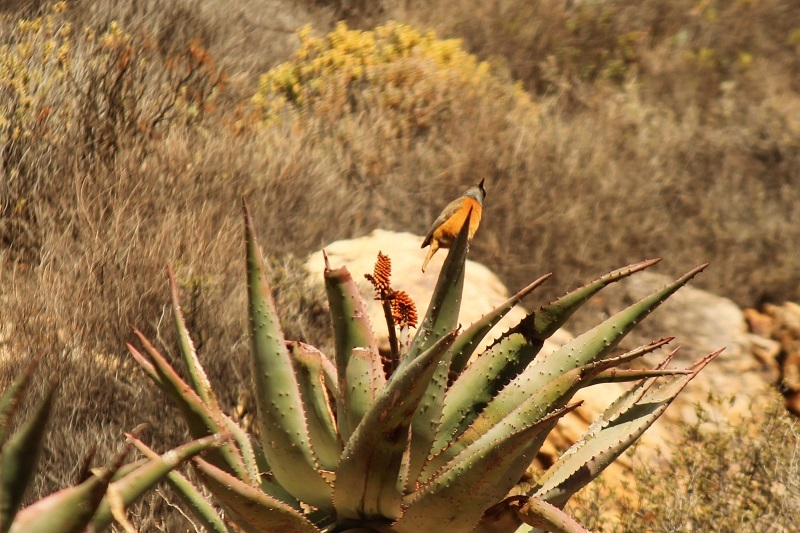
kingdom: Animalia
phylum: Chordata
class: Aves
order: Passeriformes
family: Muscicapidae
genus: Monticola
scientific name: Monticola rupestris
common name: Cape rock thrush
